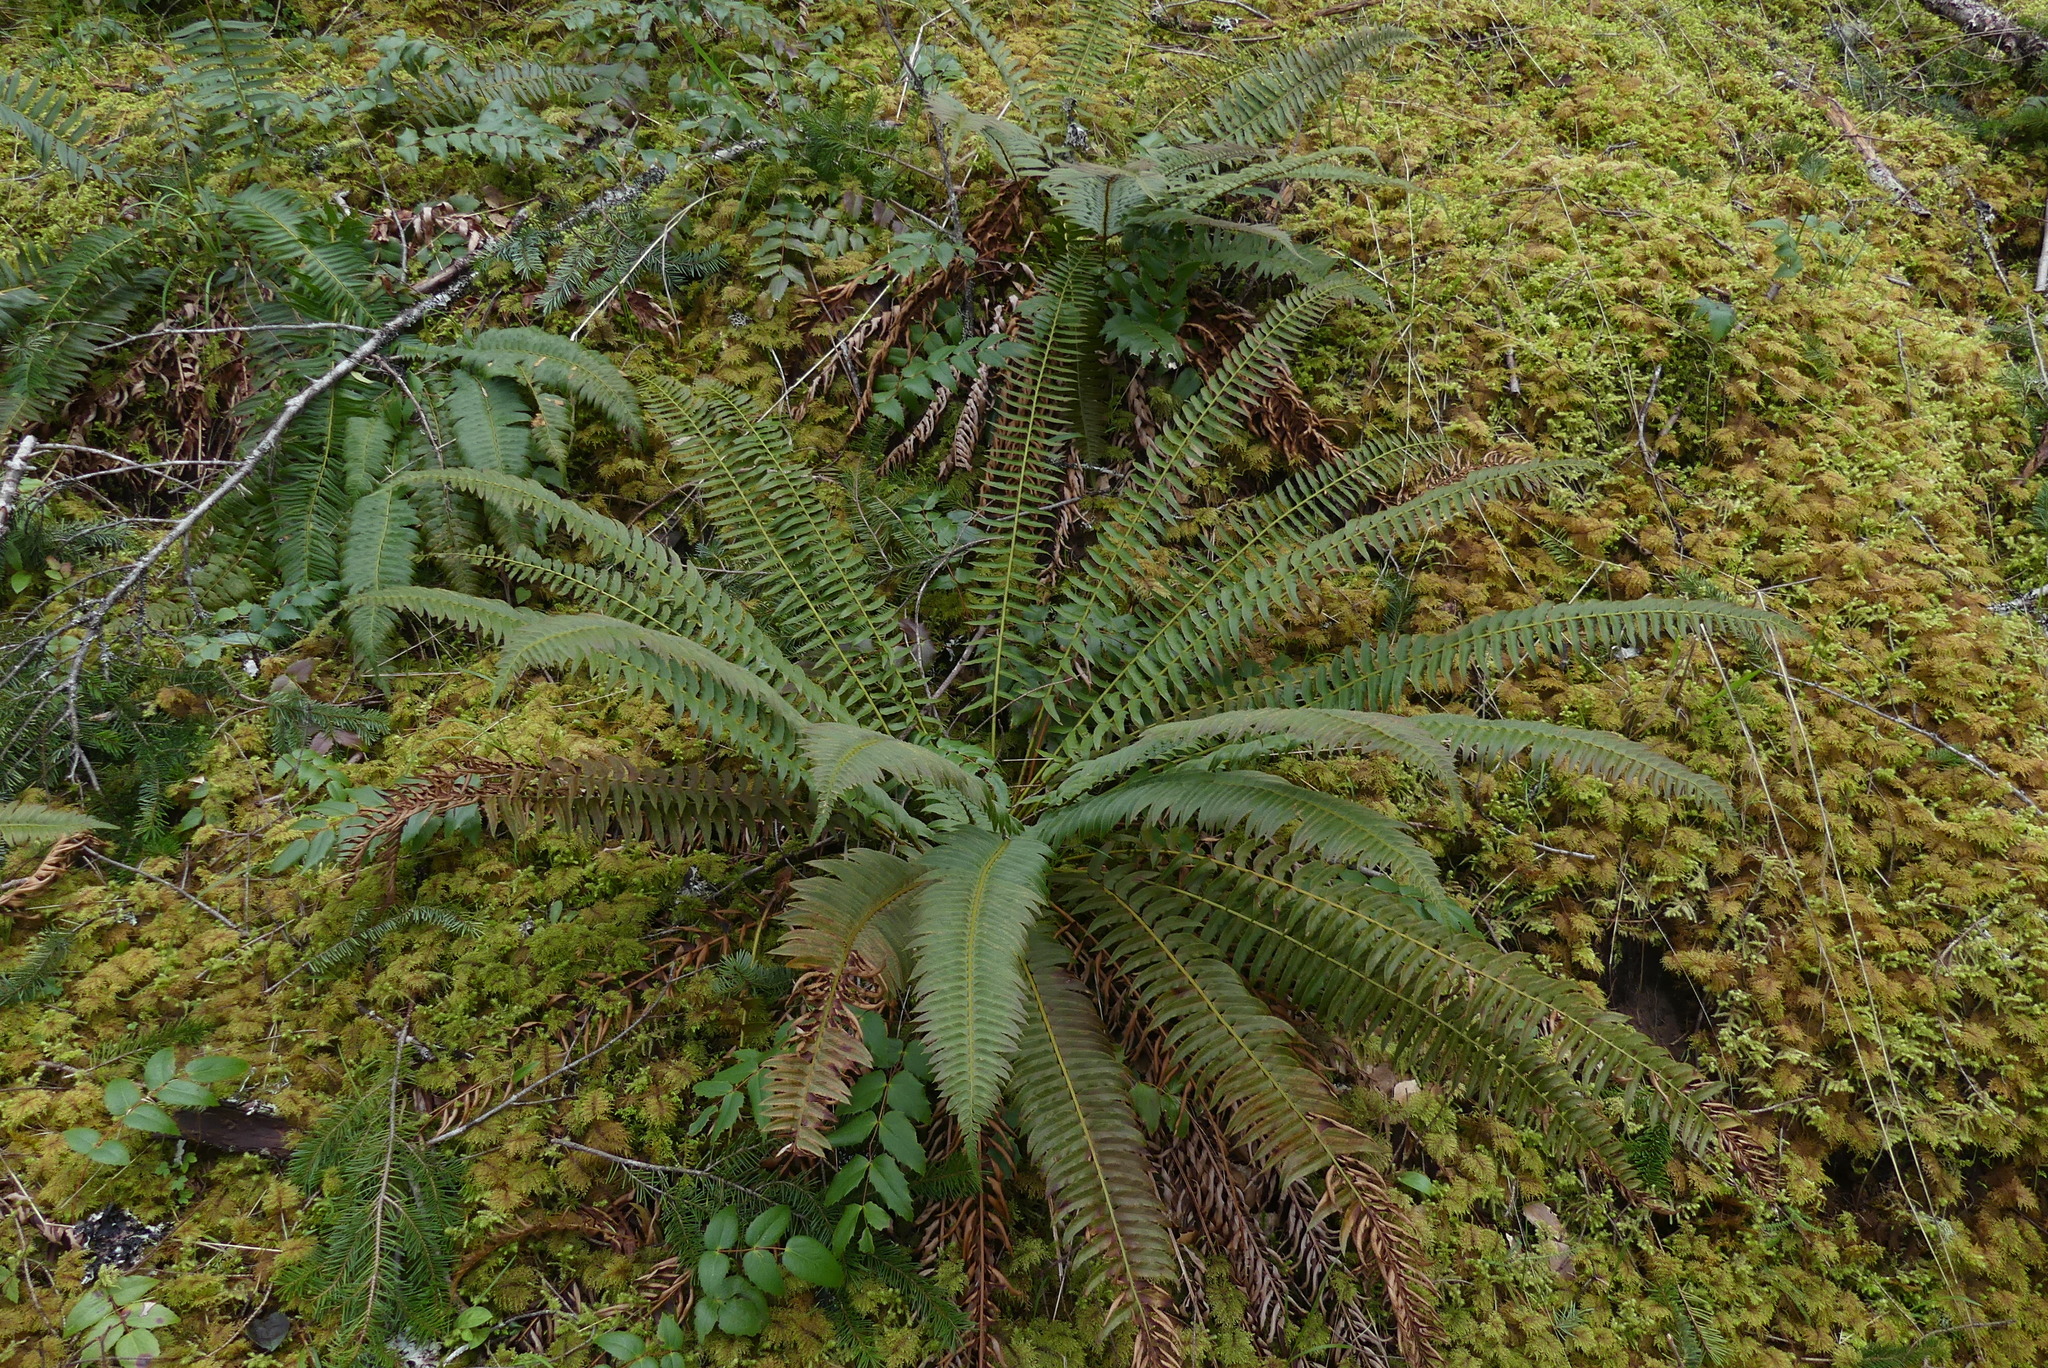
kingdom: Plantae
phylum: Tracheophyta
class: Polypodiopsida
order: Polypodiales
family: Dryopteridaceae
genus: Polystichum
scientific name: Polystichum munitum
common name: Western sword-fern
